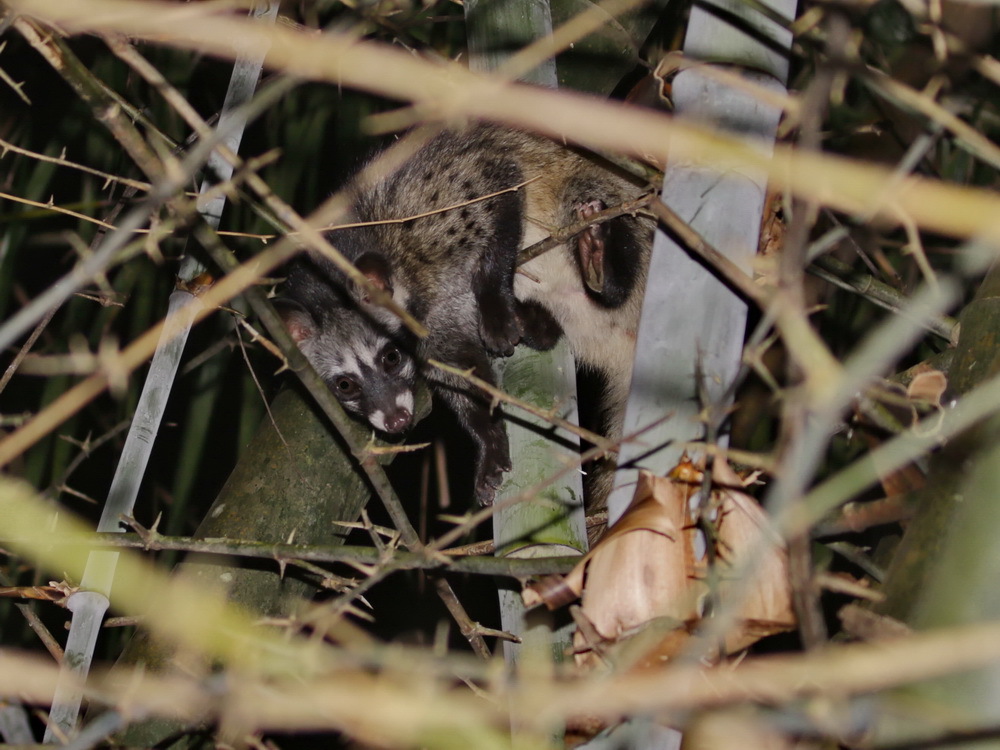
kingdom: Animalia
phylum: Chordata
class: Mammalia
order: Carnivora
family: Viverridae
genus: Paradoxurus
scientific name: Paradoxurus hermaphroditus
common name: Common palm civet
